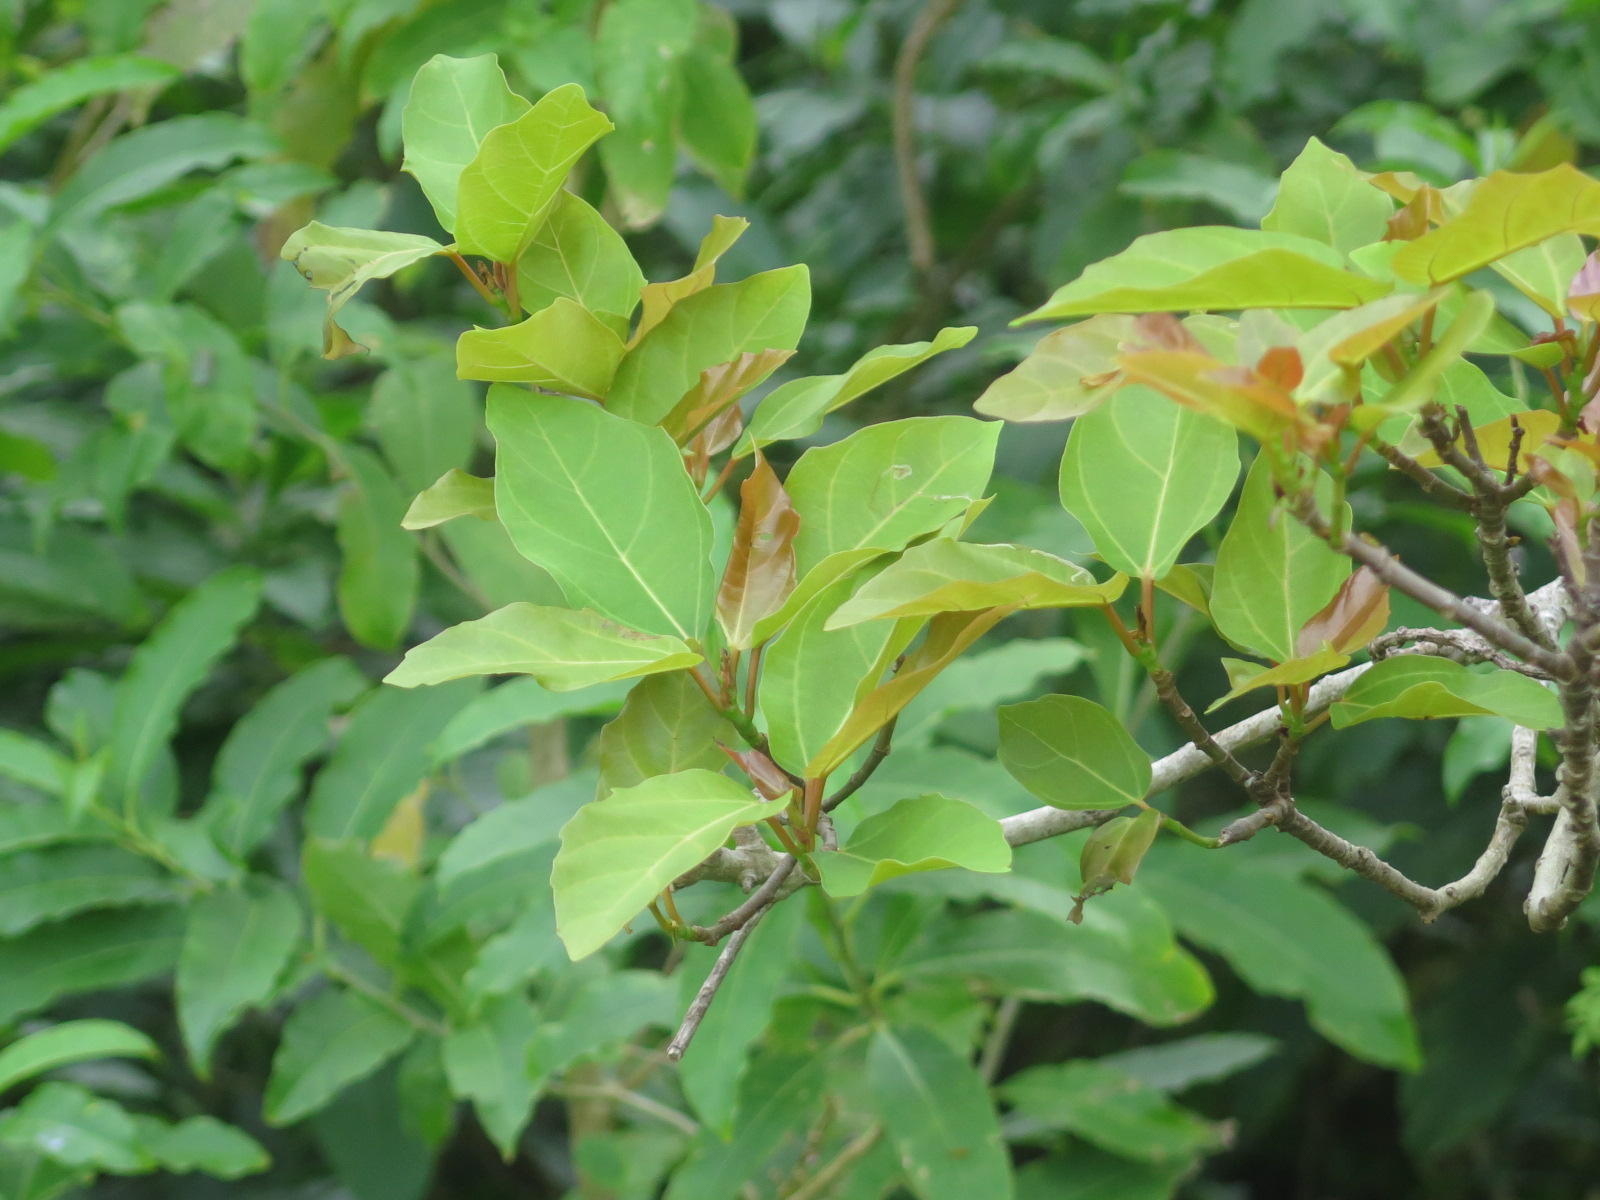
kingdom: Plantae
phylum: Tracheophyta
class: Magnoliopsida
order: Rosales
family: Moraceae
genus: Ficus
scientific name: Ficus sur
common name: Cape fig
